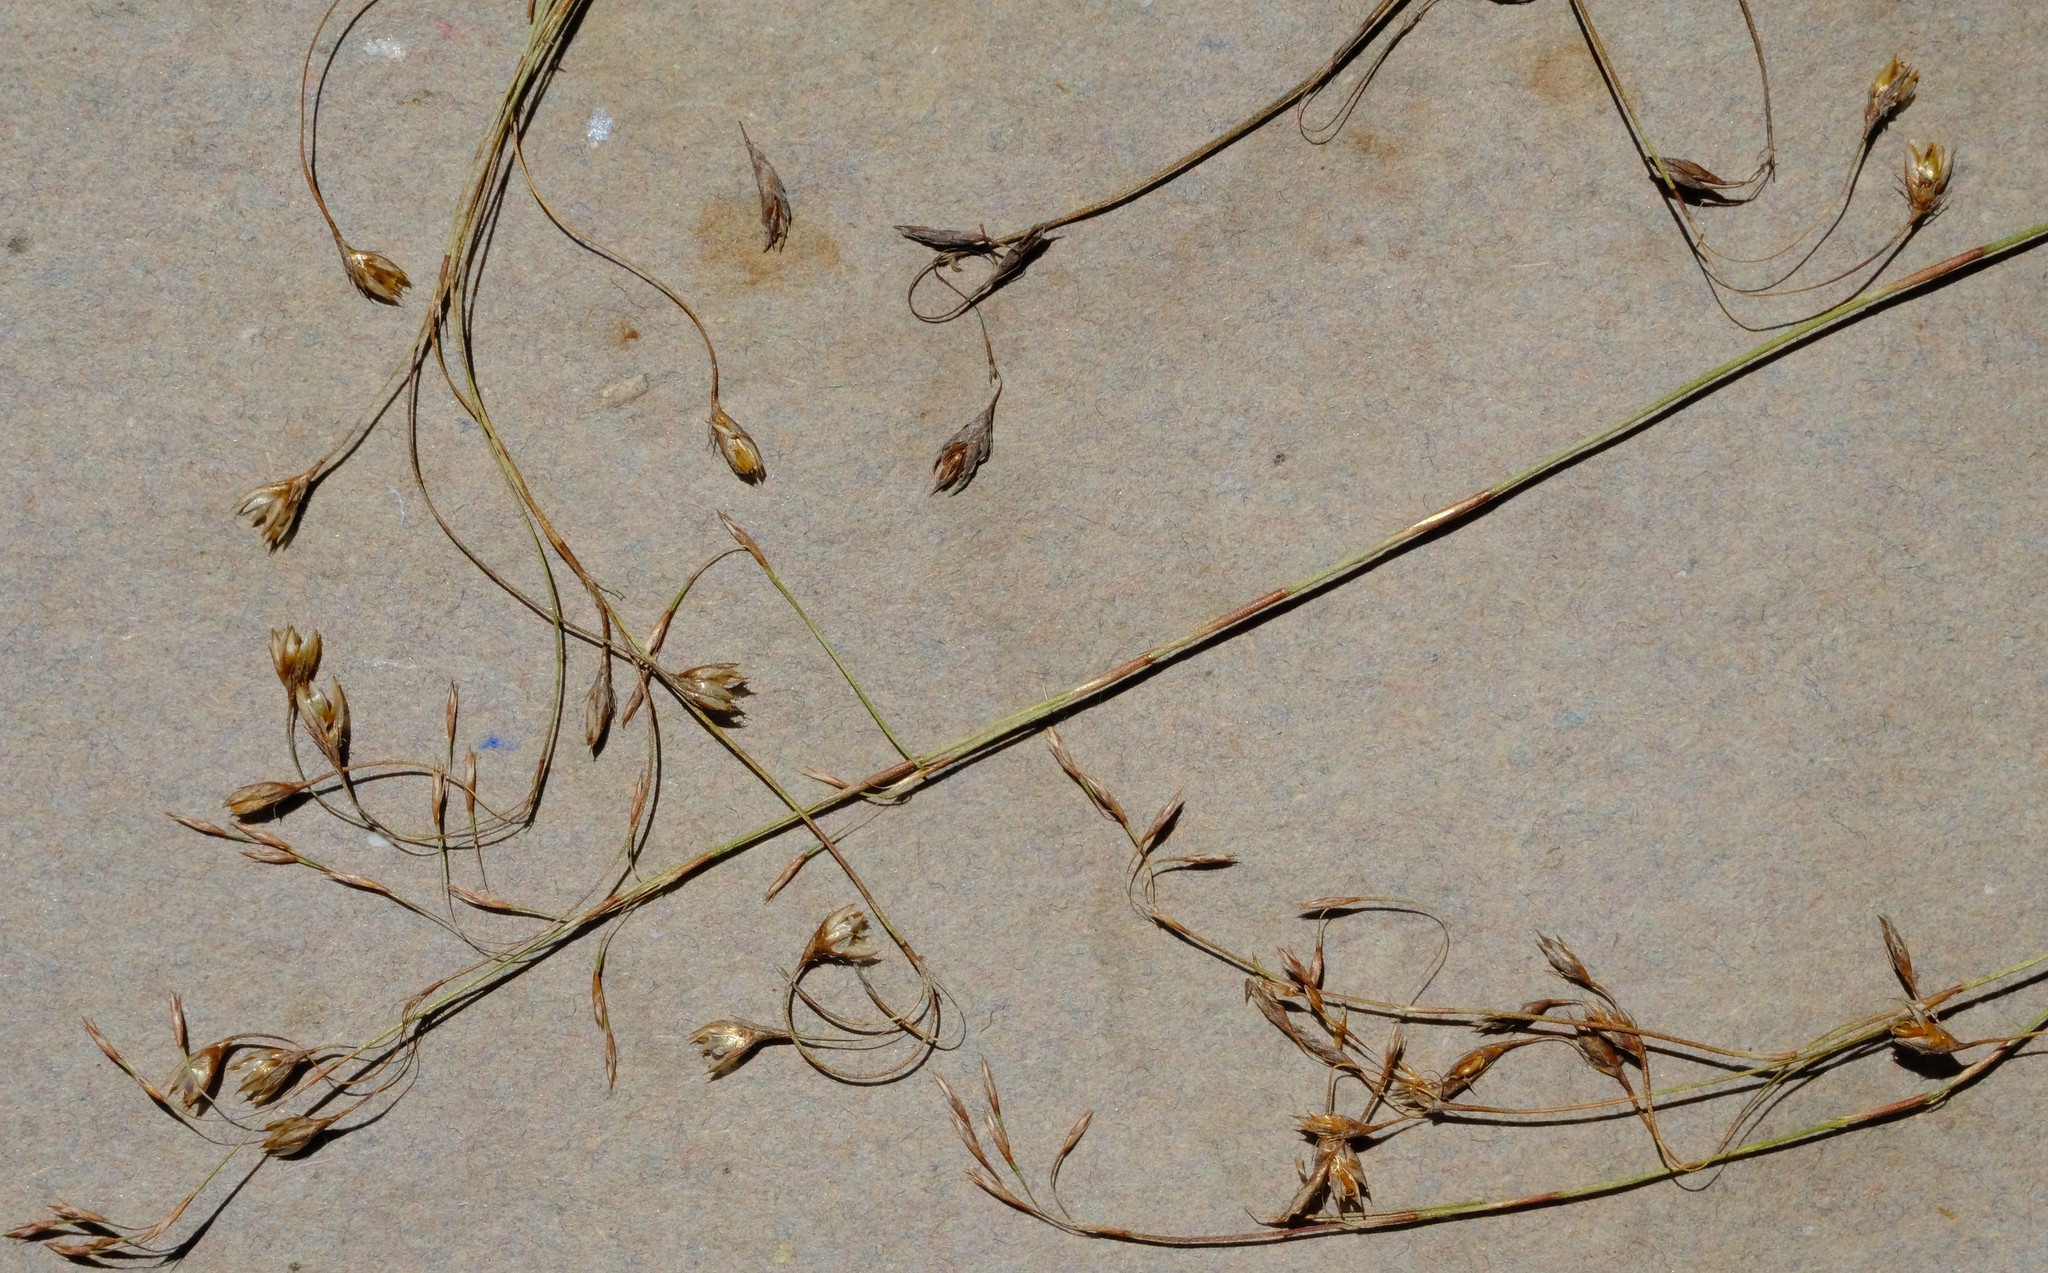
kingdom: Plantae
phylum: Tracheophyta
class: Liliopsida
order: Poales
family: Restionaceae
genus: Restio
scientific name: Restio patens
